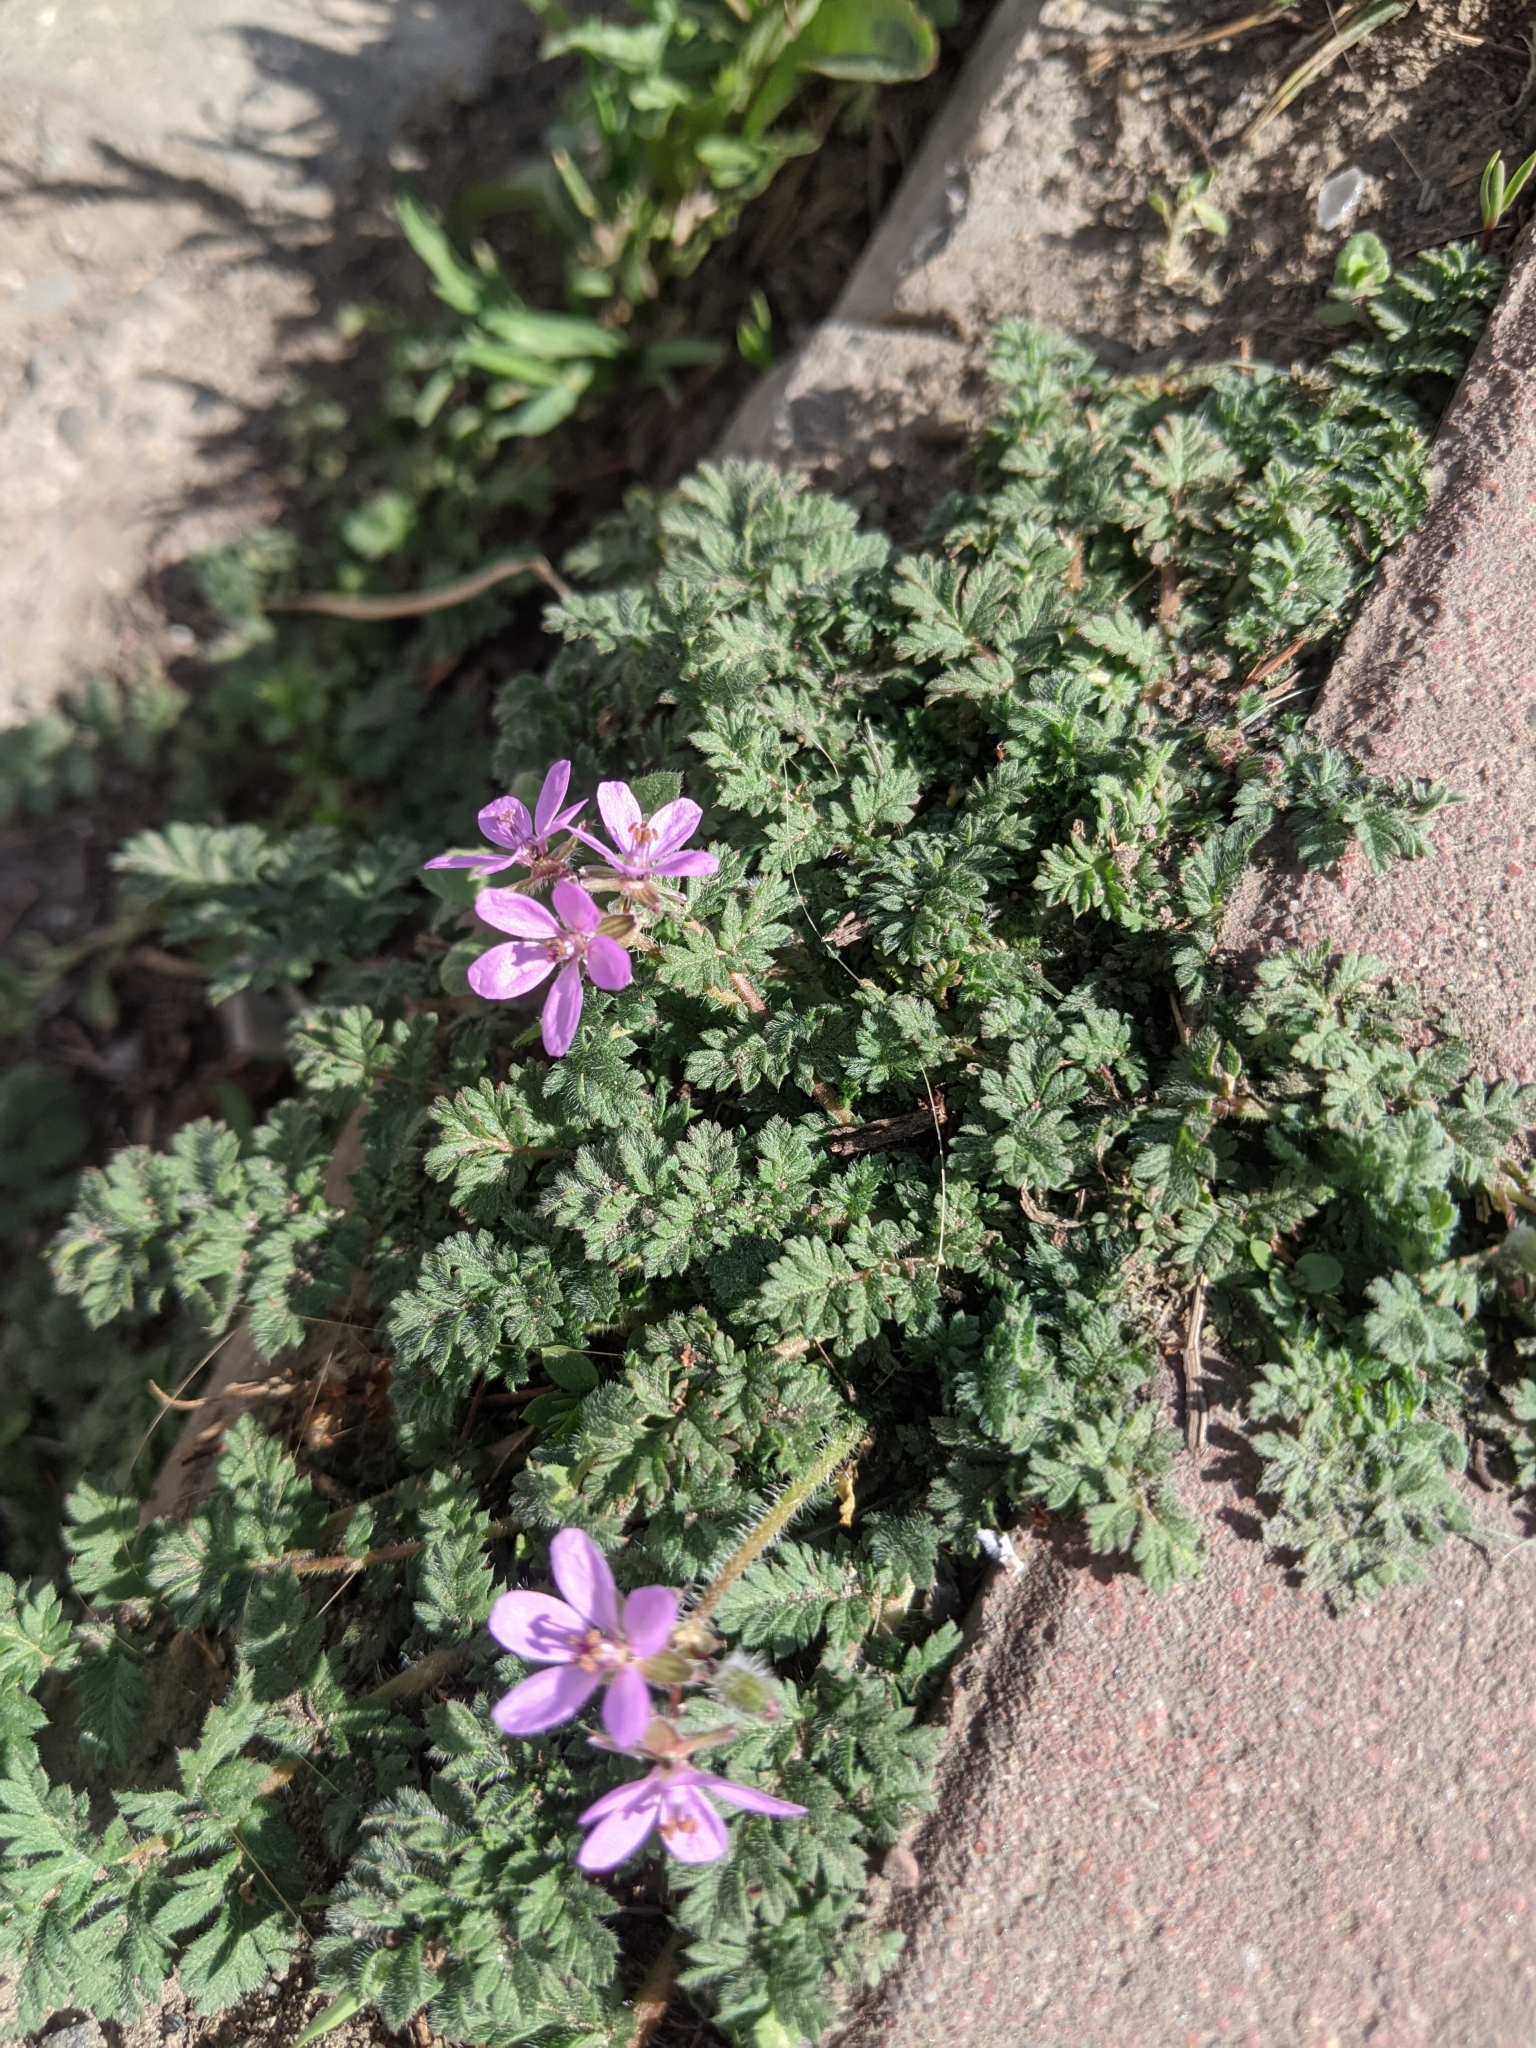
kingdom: Plantae
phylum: Tracheophyta
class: Magnoliopsida
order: Geraniales
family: Geraniaceae
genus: Erodium
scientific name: Erodium cicutarium
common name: Common stork's-bill
